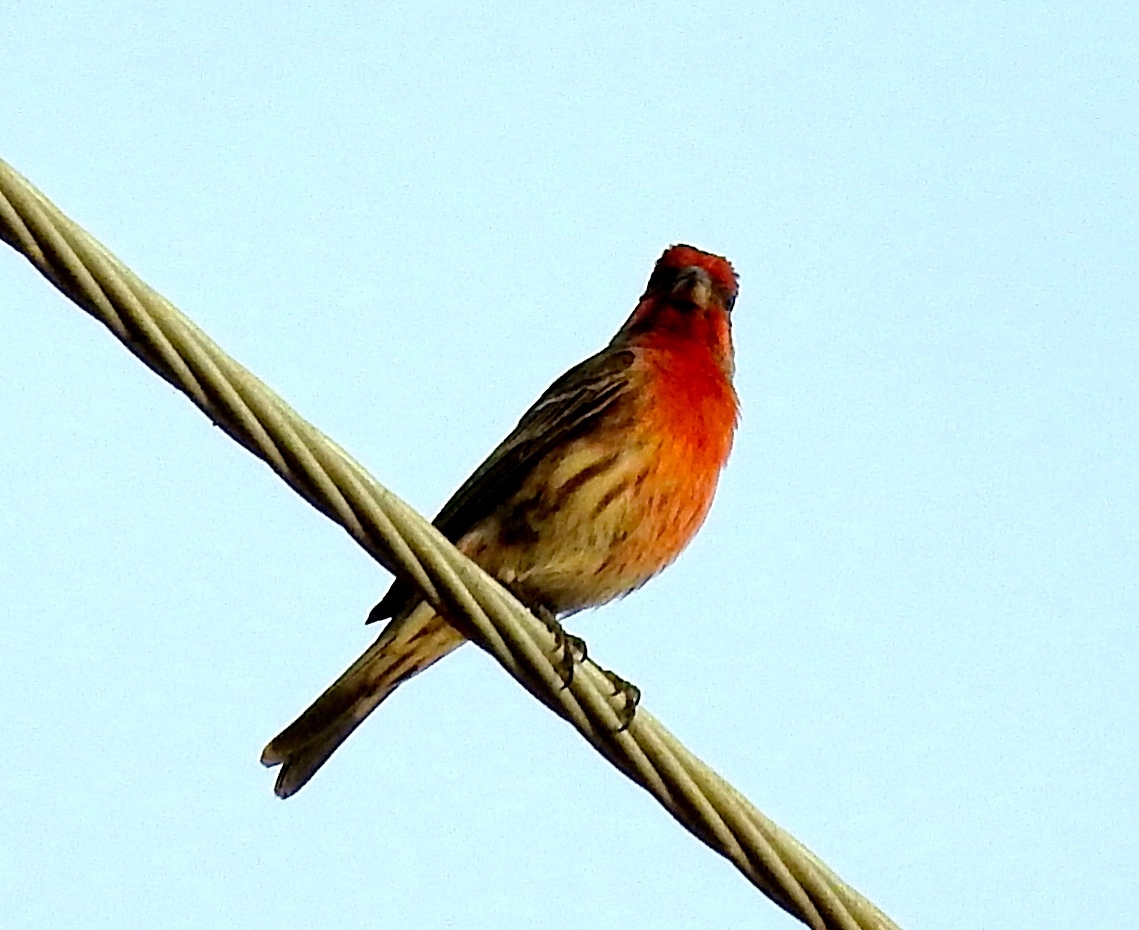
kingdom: Animalia
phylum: Chordata
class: Aves
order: Passeriformes
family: Fringillidae
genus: Haemorhous
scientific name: Haemorhous mexicanus
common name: House finch
